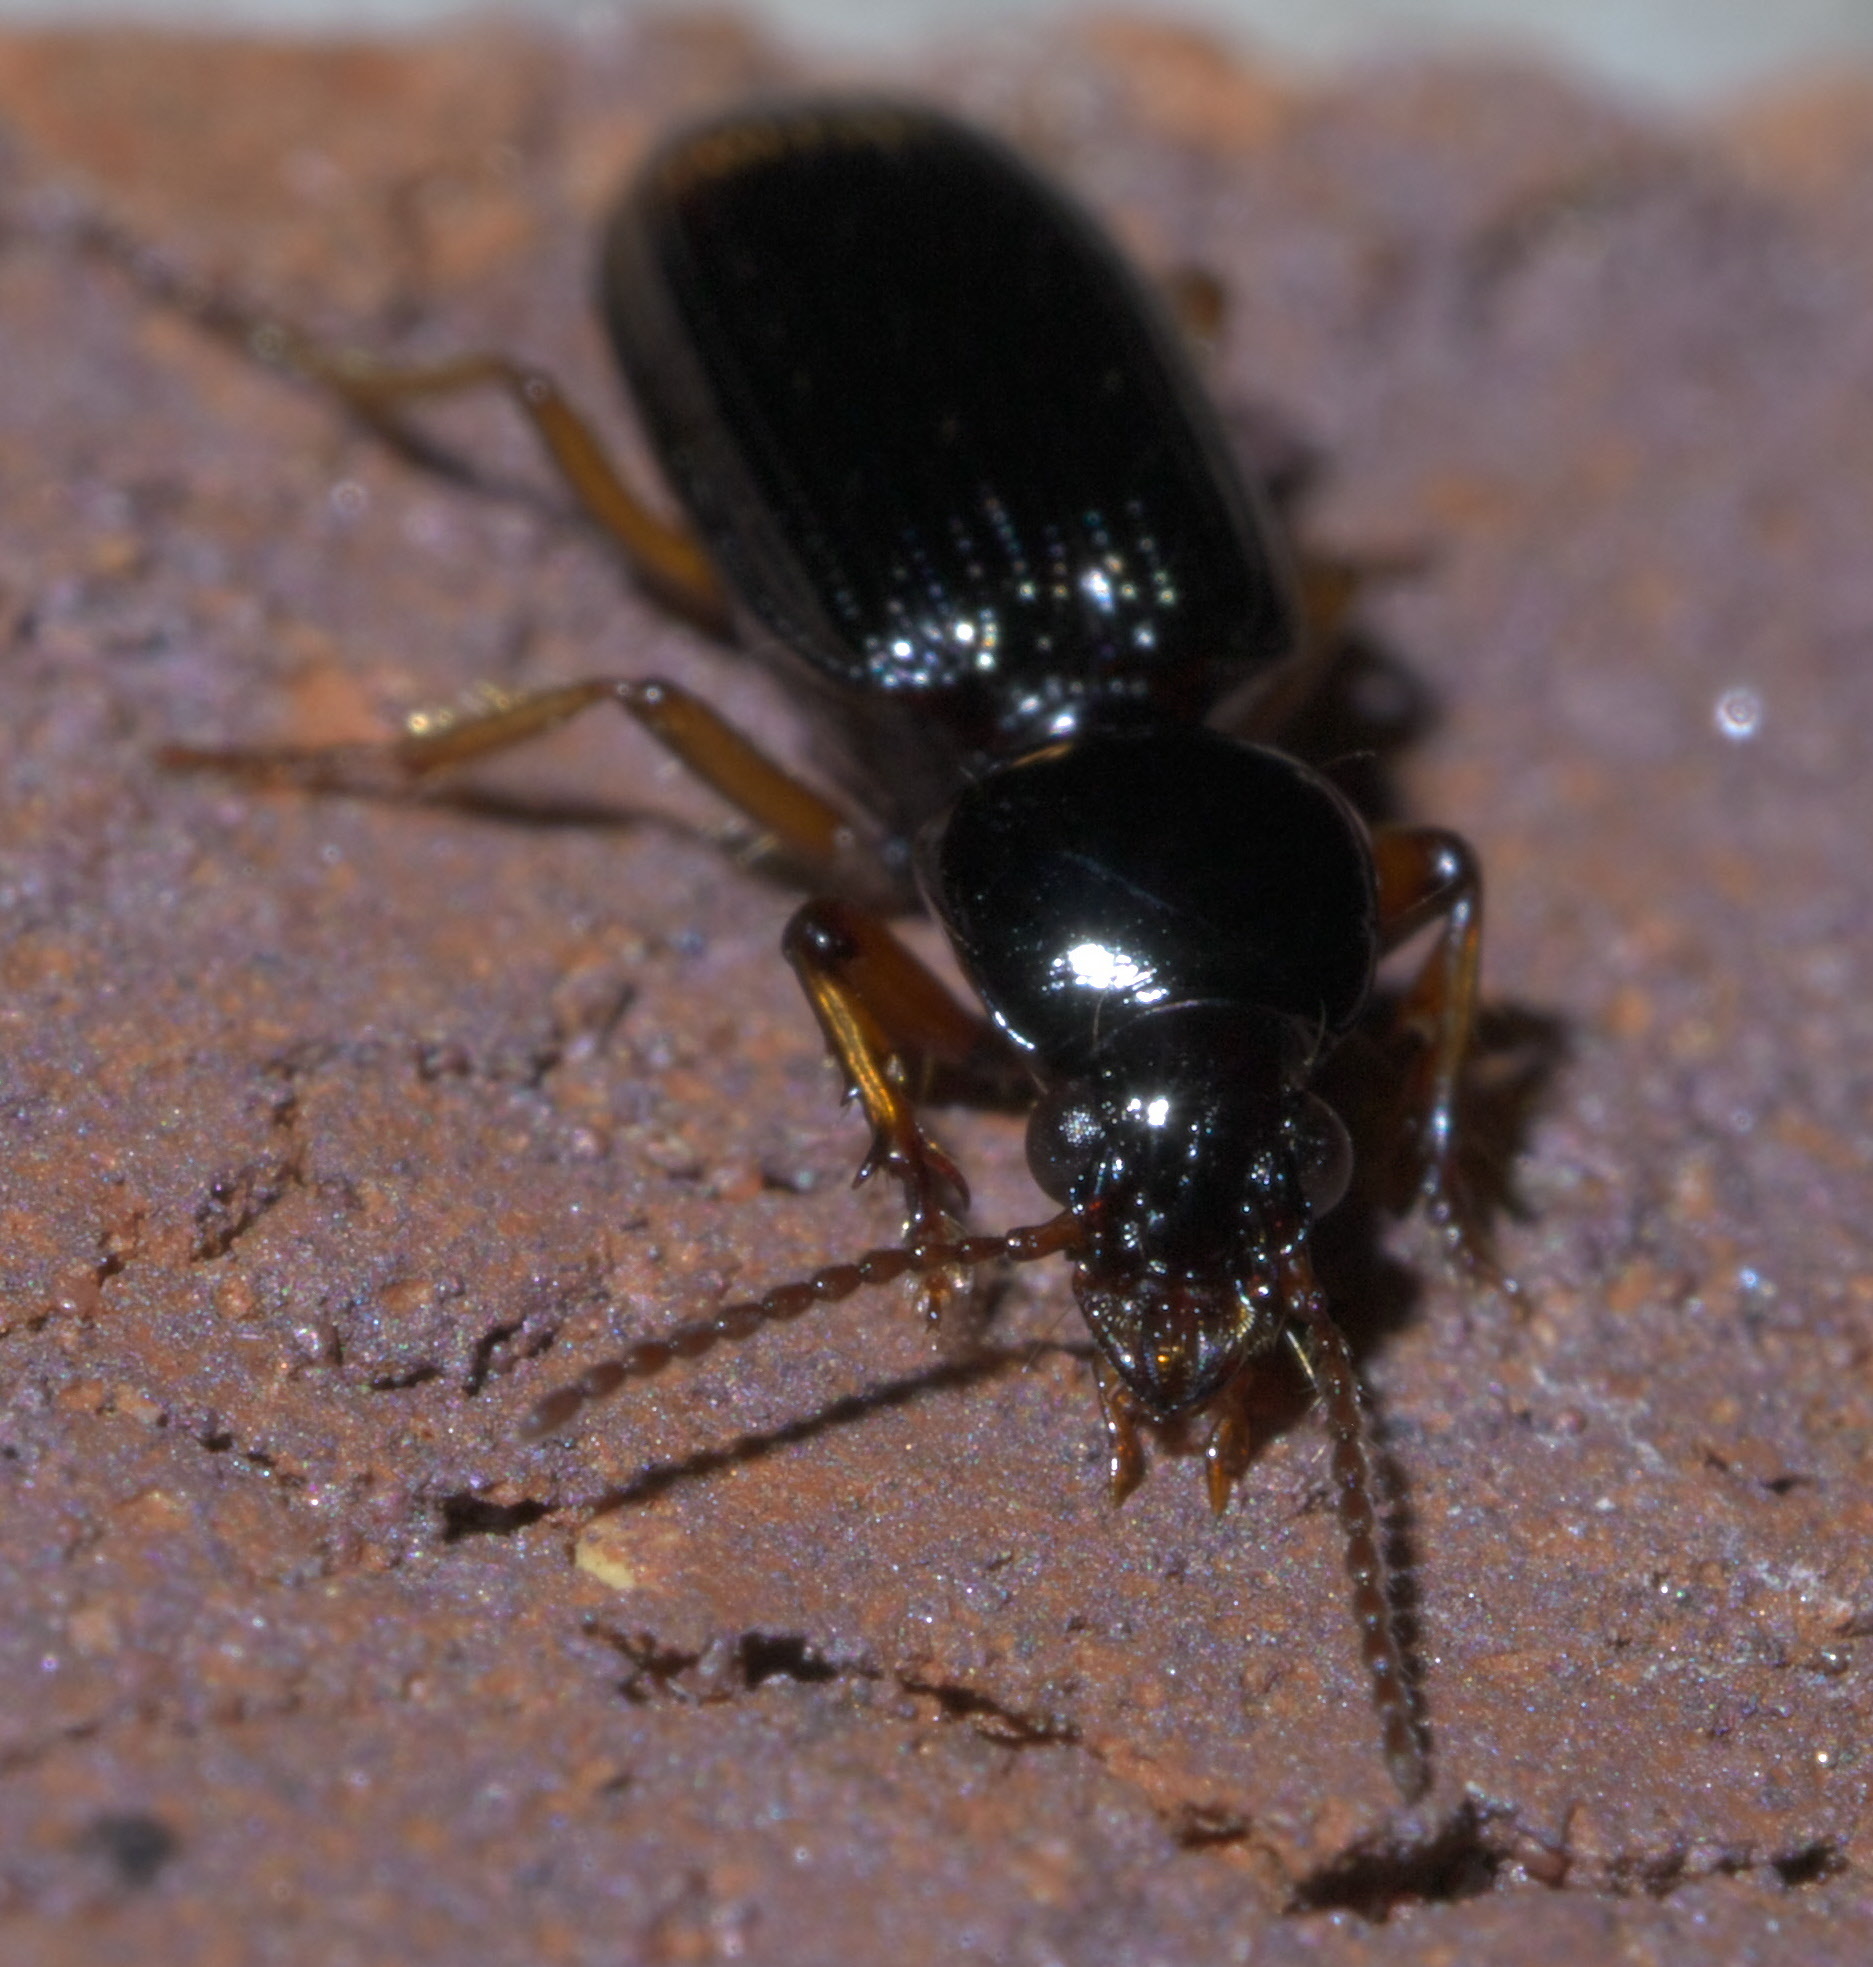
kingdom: Animalia
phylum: Arthropoda
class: Insecta
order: Coleoptera
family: Carabidae
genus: Aspidoglossa
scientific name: Aspidoglossa subangulata
